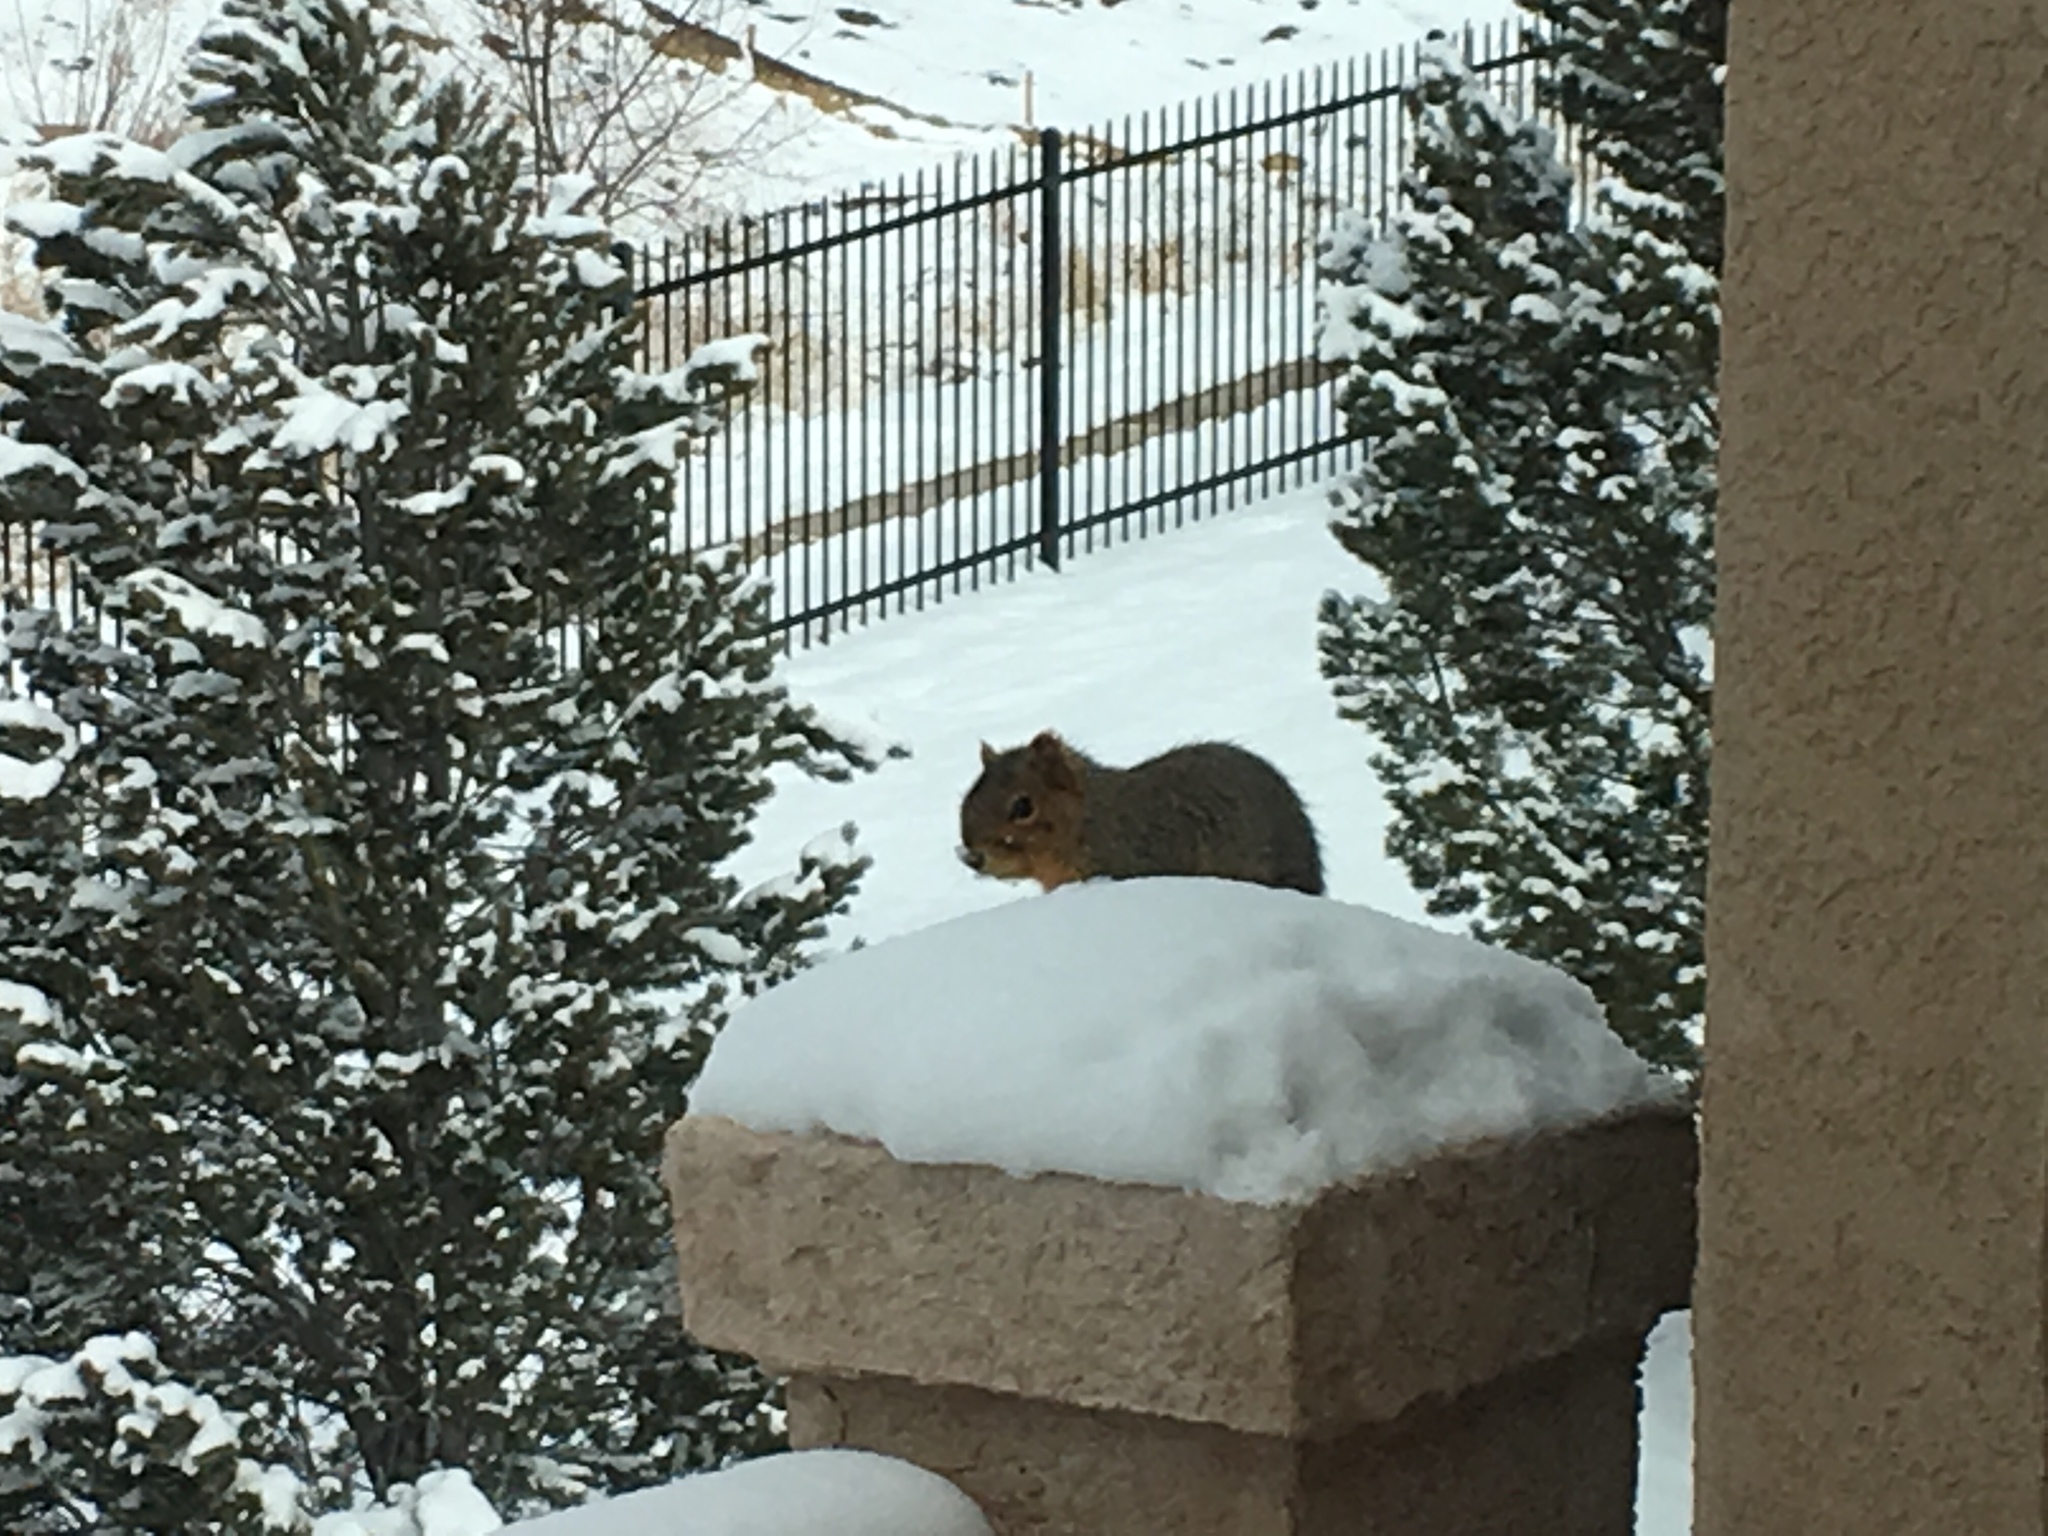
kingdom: Animalia
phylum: Chordata
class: Mammalia
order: Rodentia
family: Sciuridae
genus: Sciurus
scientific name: Sciurus niger
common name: Fox squirrel
